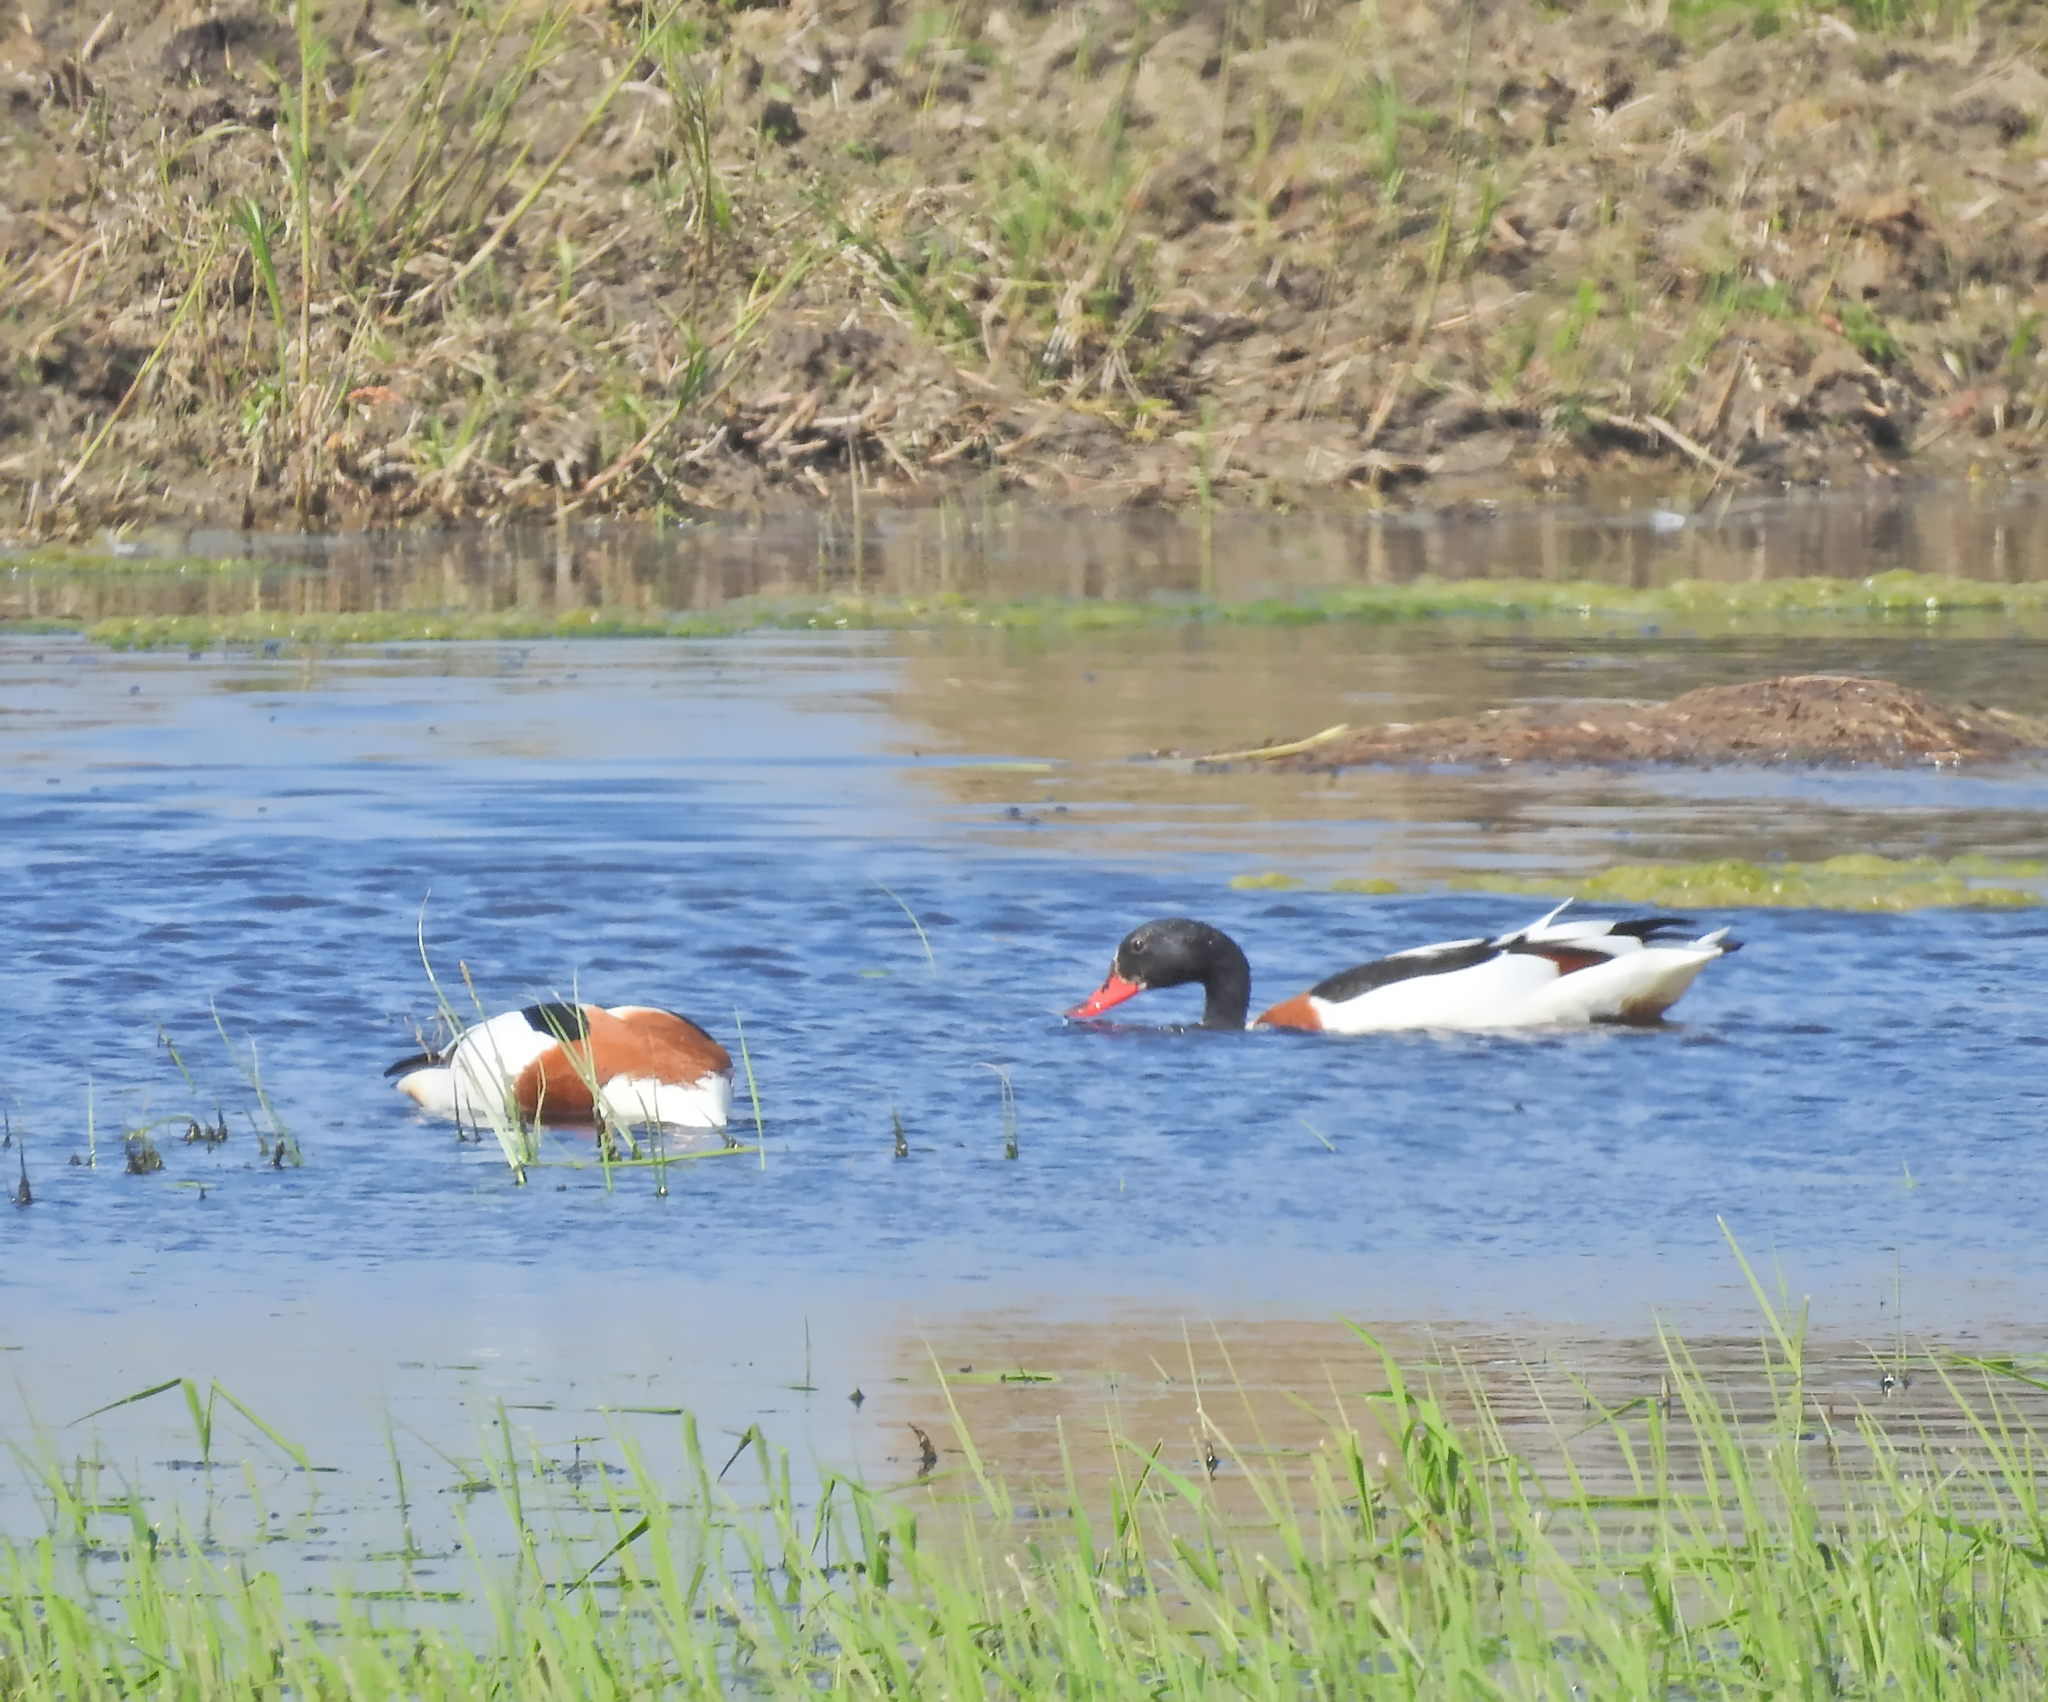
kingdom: Animalia
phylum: Chordata
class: Aves
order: Anseriformes
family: Anatidae
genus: Tadorna
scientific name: Tadorna tadorna
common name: Common shelduck
